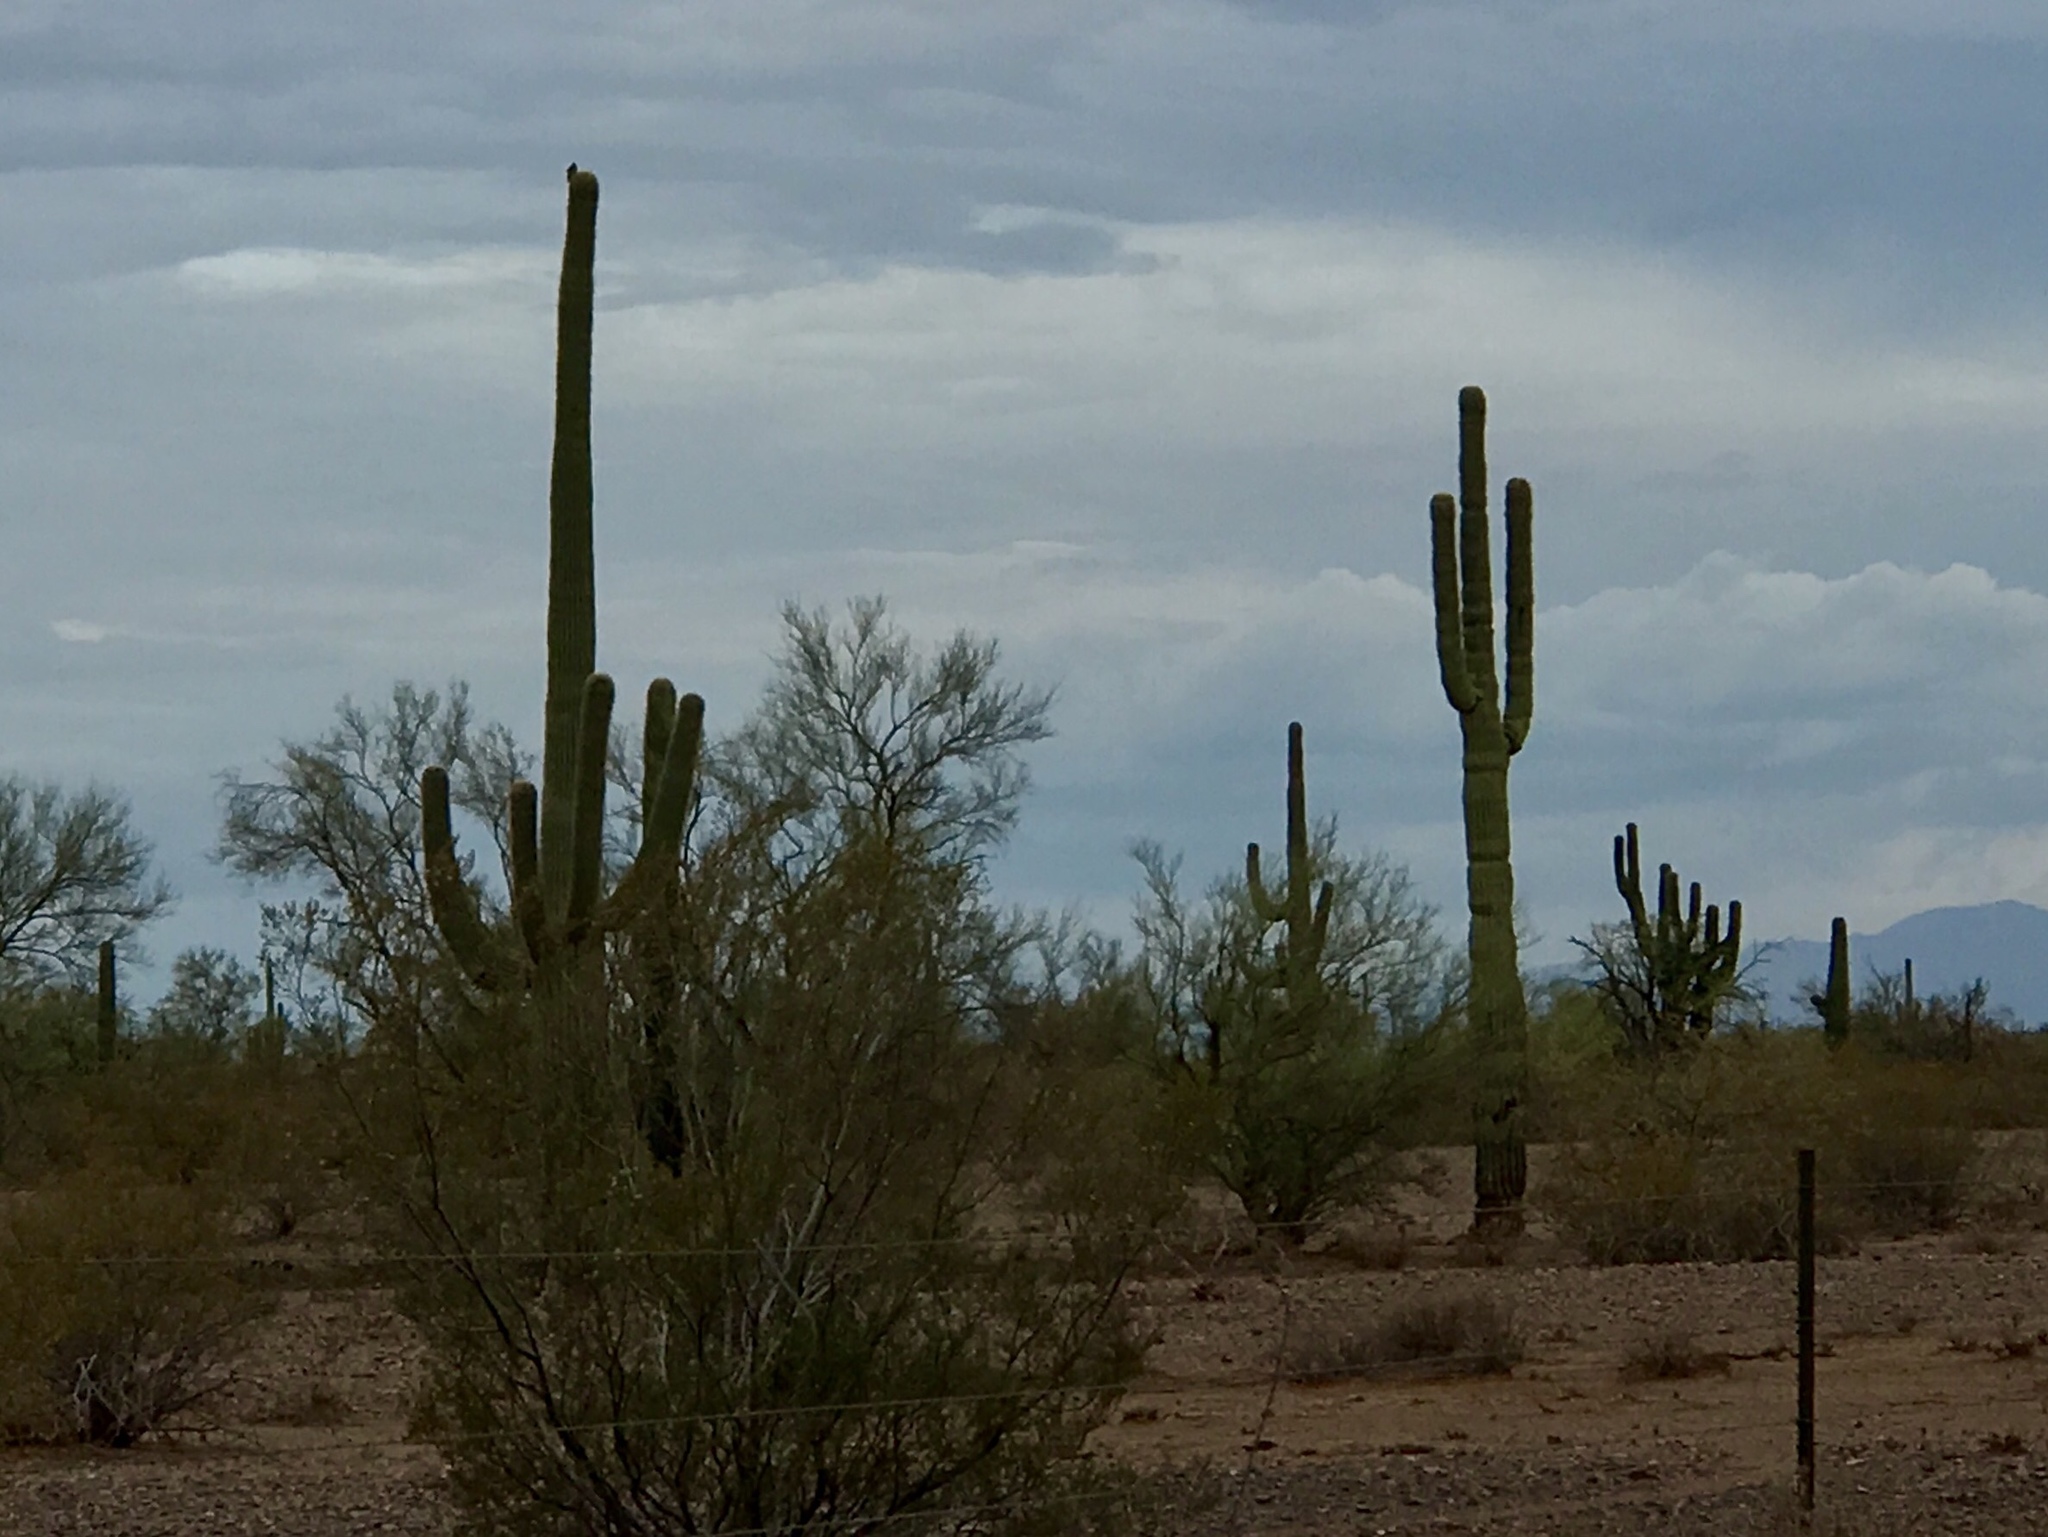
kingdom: Plantae
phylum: Tracheophyta
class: Magnoliopsida
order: Caryophyllales
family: Cactaceae
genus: Carnegiea
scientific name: Carnegiea gigantea
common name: Saguaro
